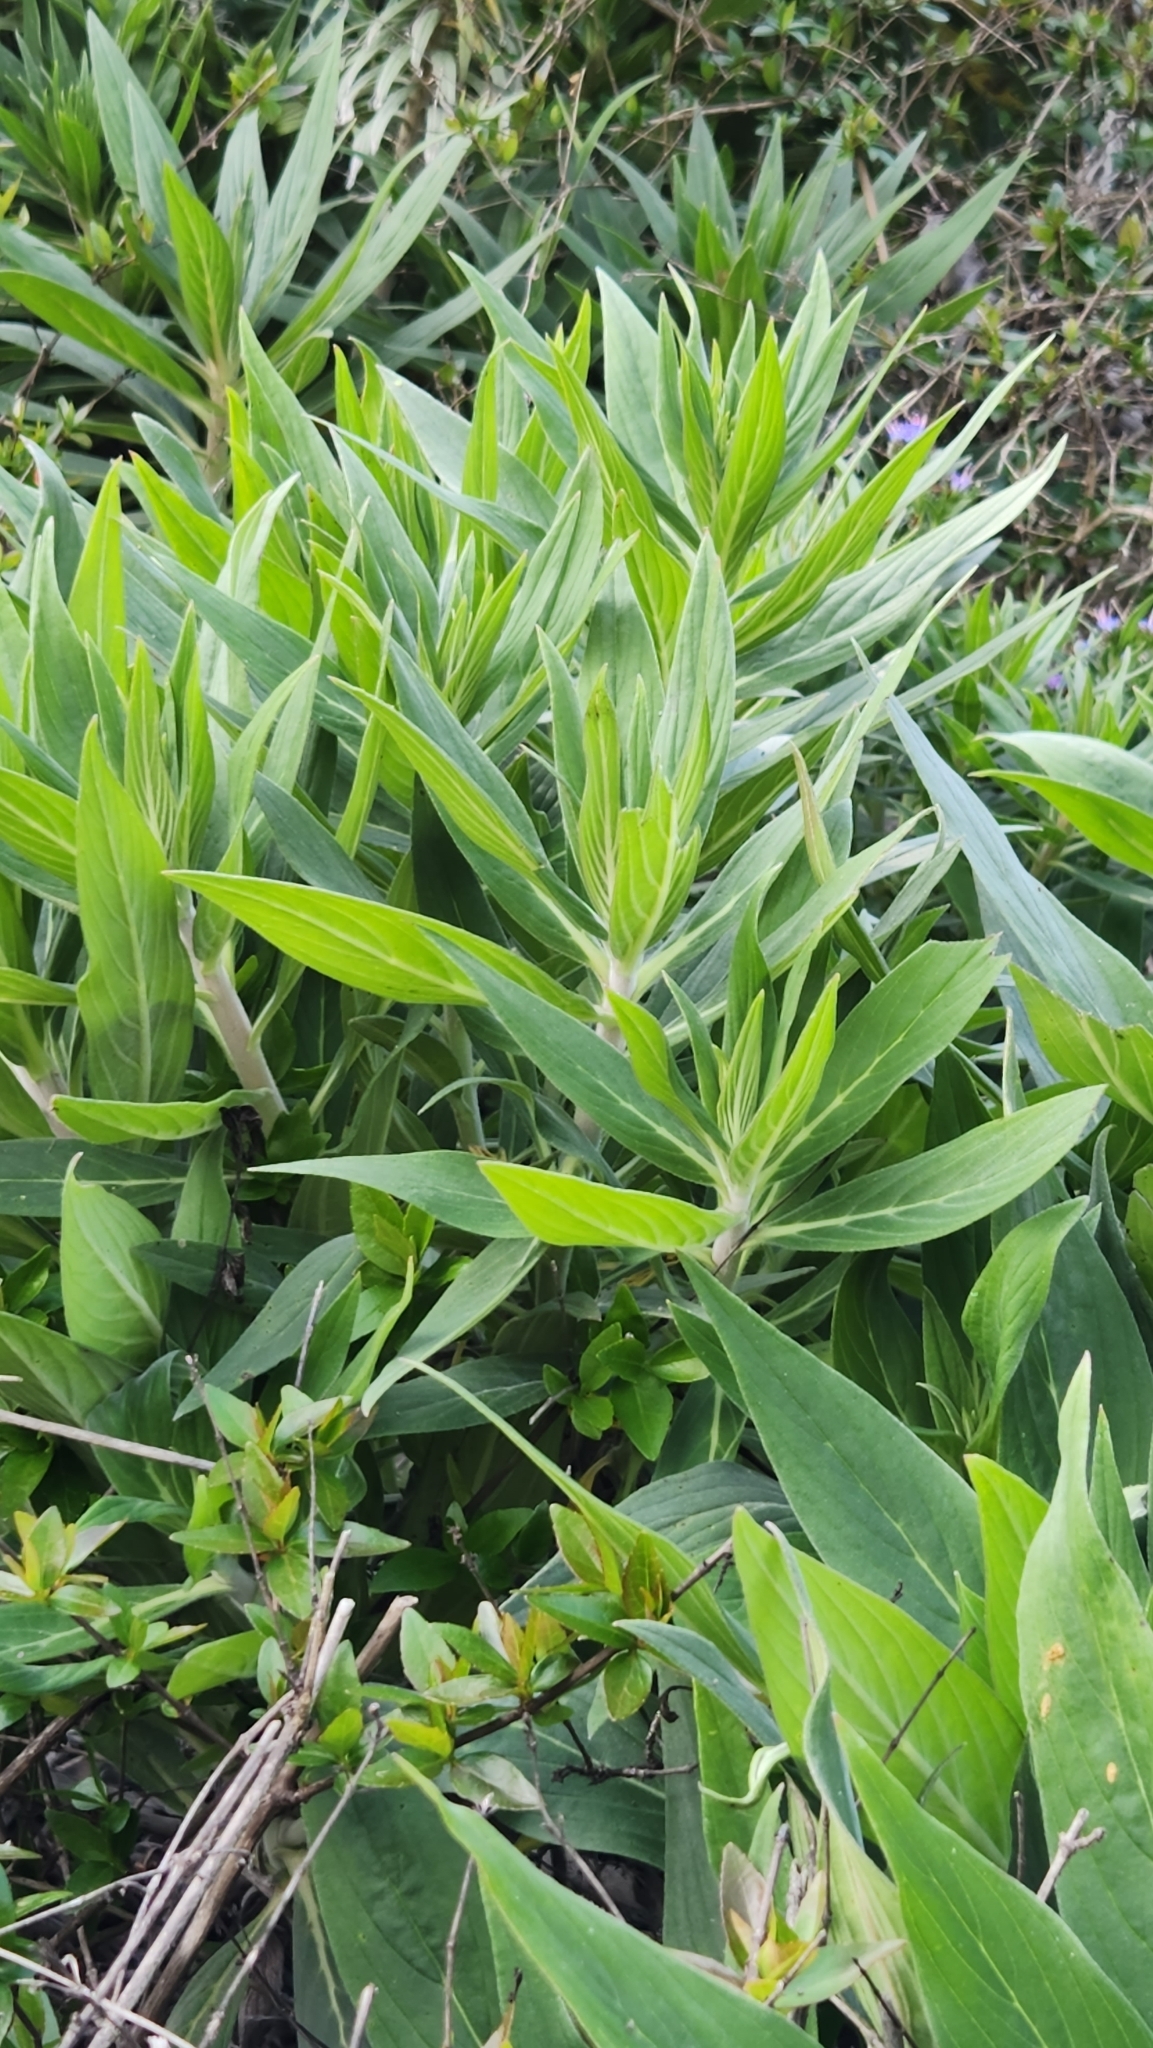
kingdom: Plantae
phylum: Tracheophyta
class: Magnoliopsida
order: Boraginales
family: Boraginaceae
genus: Echium
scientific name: Echium candicans
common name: Pride of madeira
